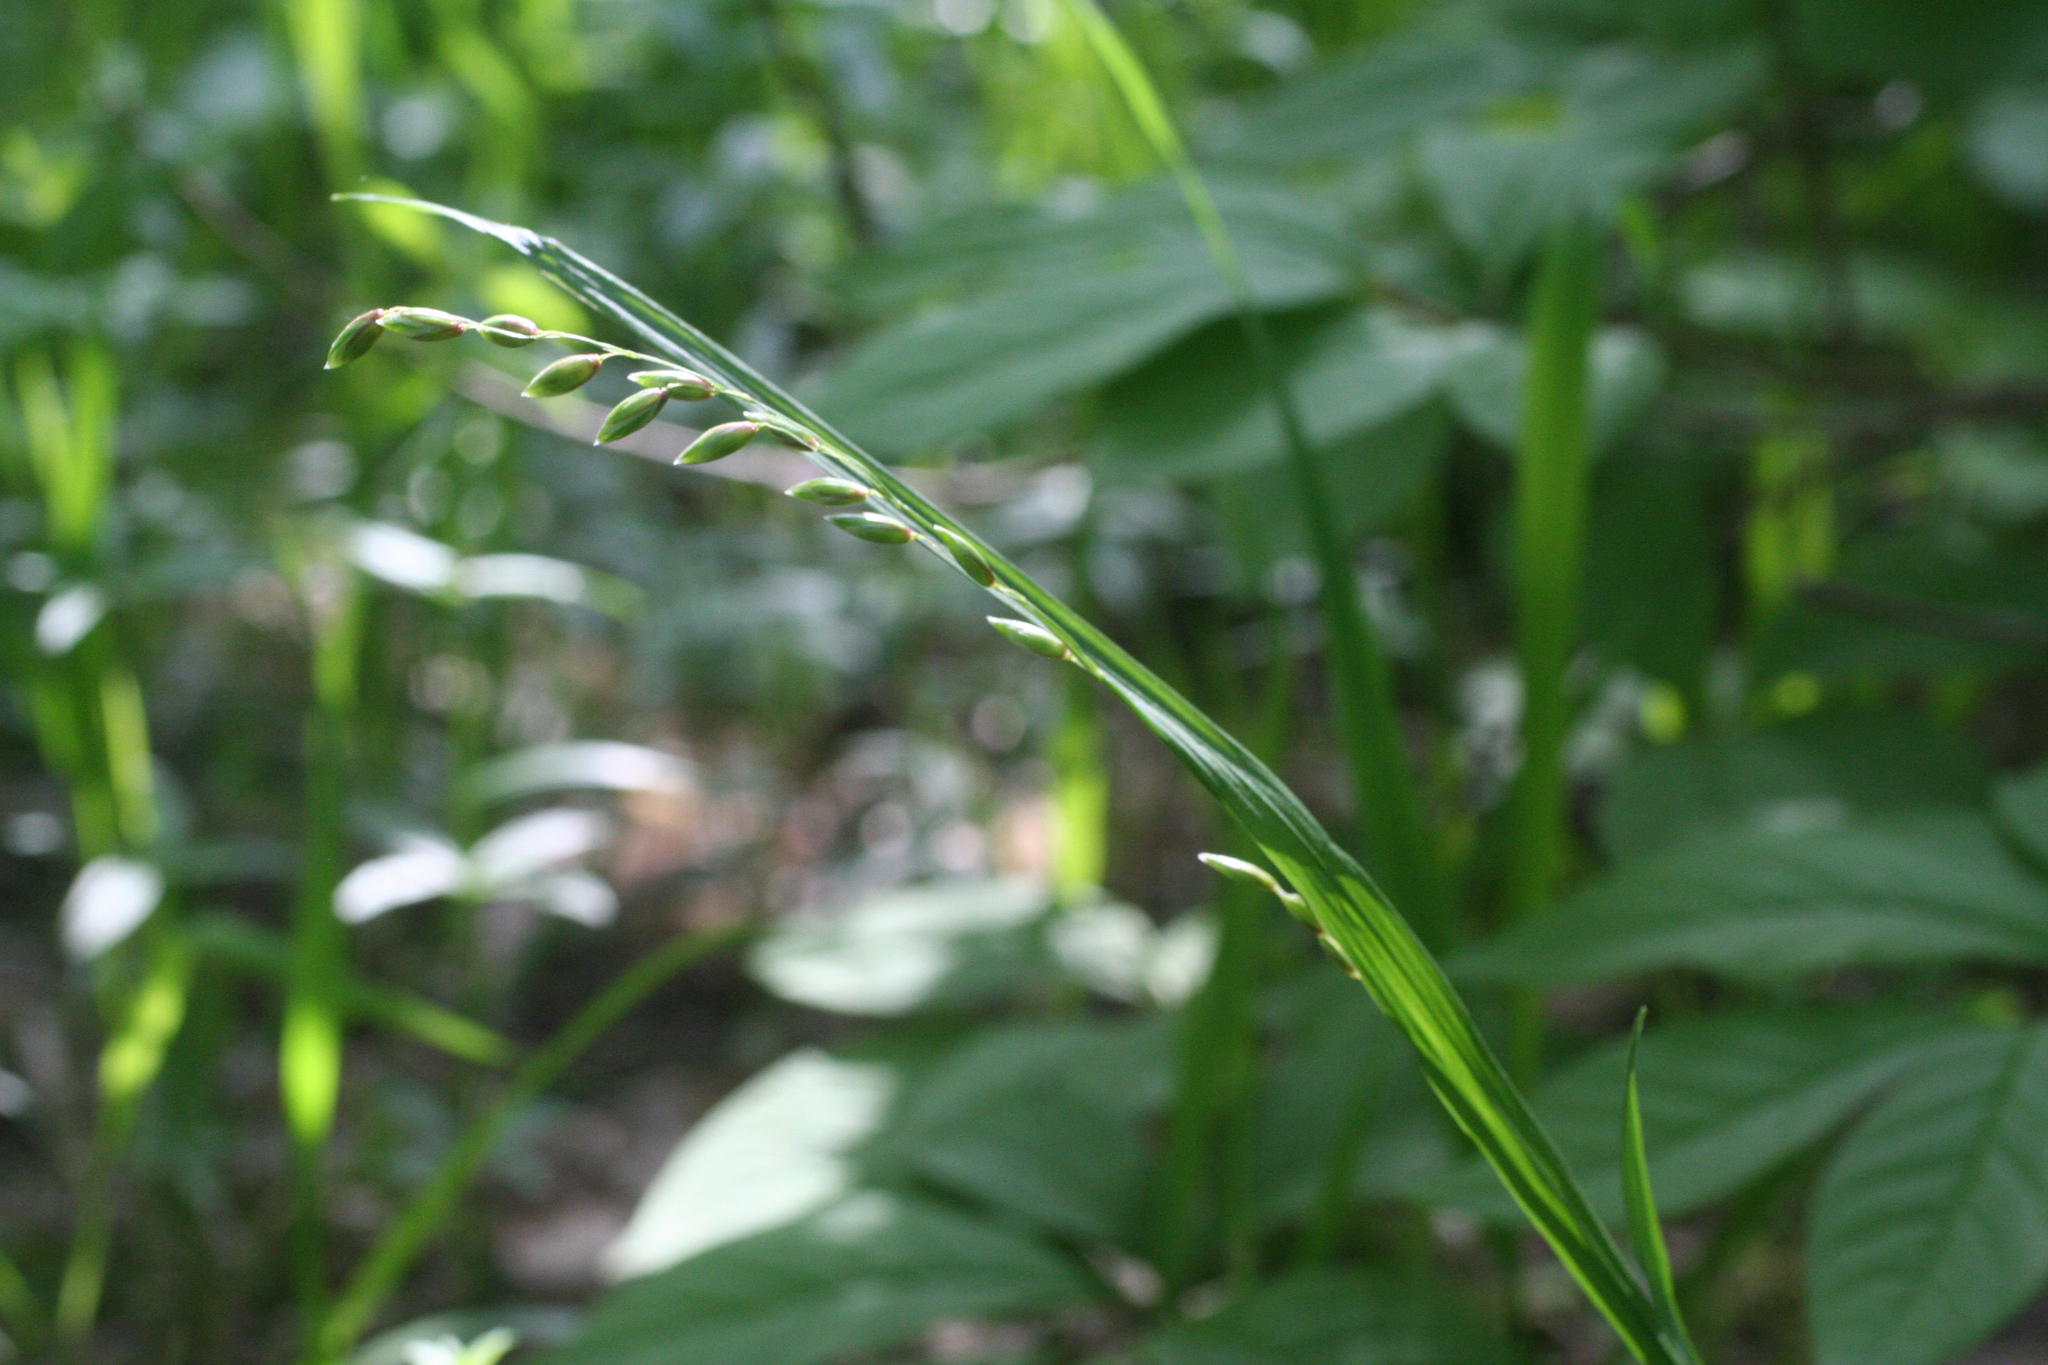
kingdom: Plantae
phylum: Tracheophyta
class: Liliopsida
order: Poales
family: Poaceae
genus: Melica
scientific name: Melica nutans
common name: Mountain melick
